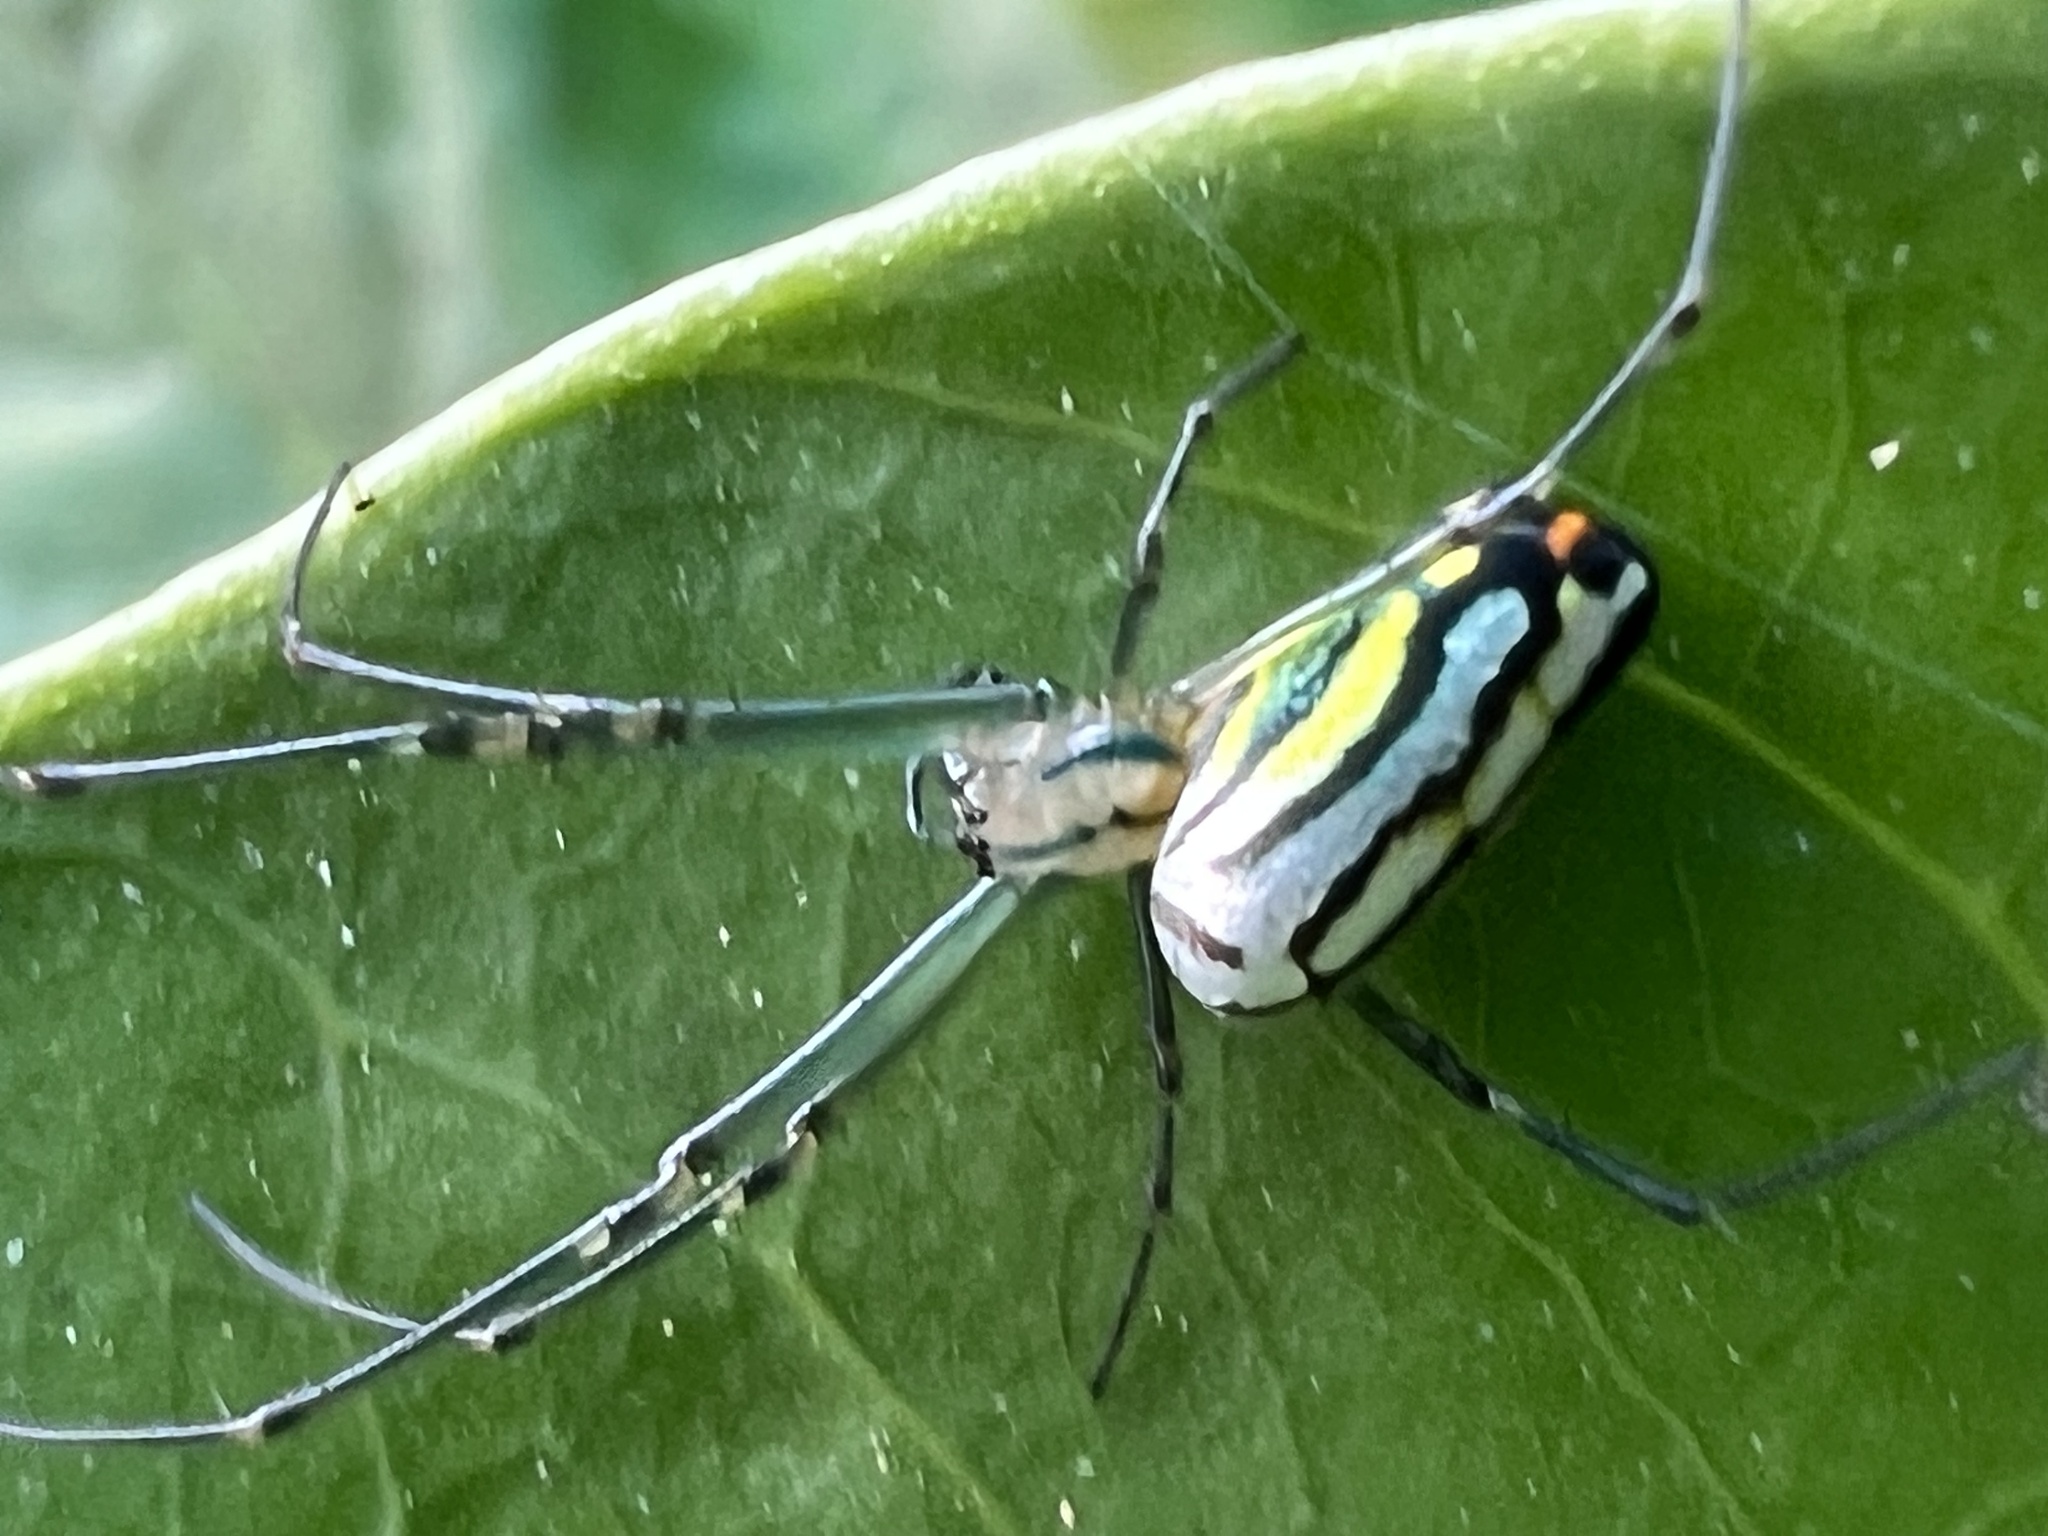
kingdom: Animalia
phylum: Arthropoda
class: Arachnida
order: Araneae
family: Tetragnathidae
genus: Leucauge
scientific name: Leucauge argyrobapta
